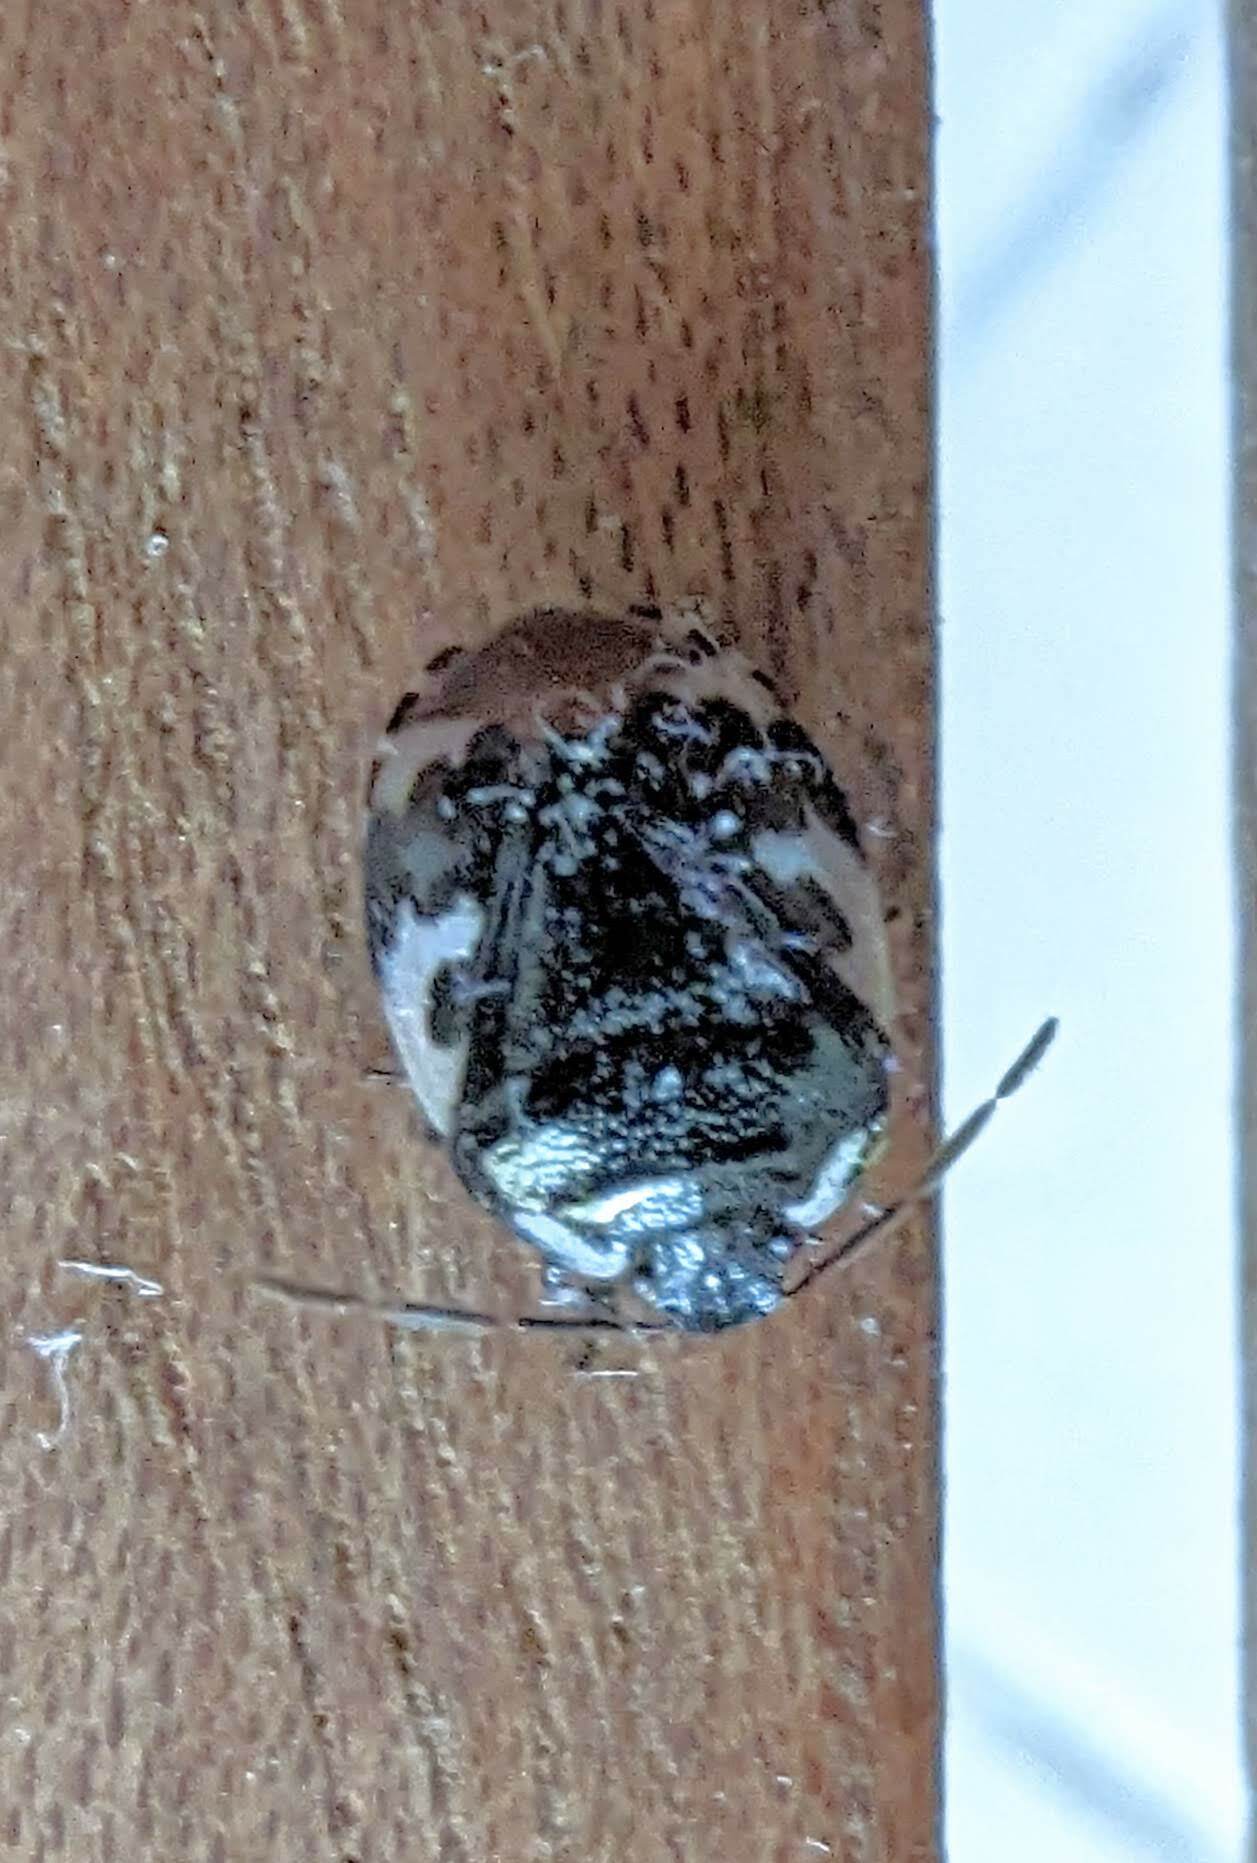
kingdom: Animalia
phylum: Arthropoda
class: Insecta
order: Hemiptera
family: Cydnidae
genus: Tritomegas
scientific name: Tritomegas bicolor
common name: Pied shieldbug
